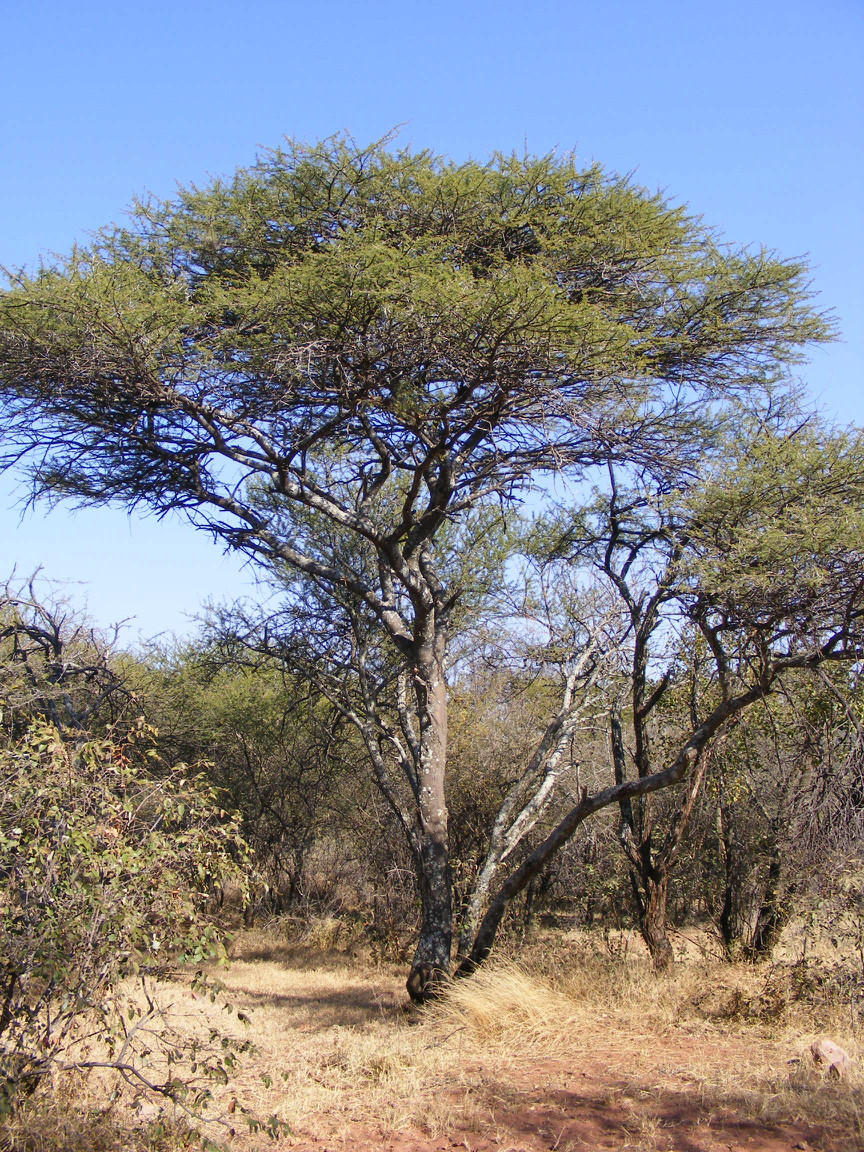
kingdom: Plantae
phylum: Tracheophyta
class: Magnoliopsida
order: Fabales
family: Fabaceae
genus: Vachellia
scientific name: Vachellia tortilis
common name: Umbrella thorn acacia
